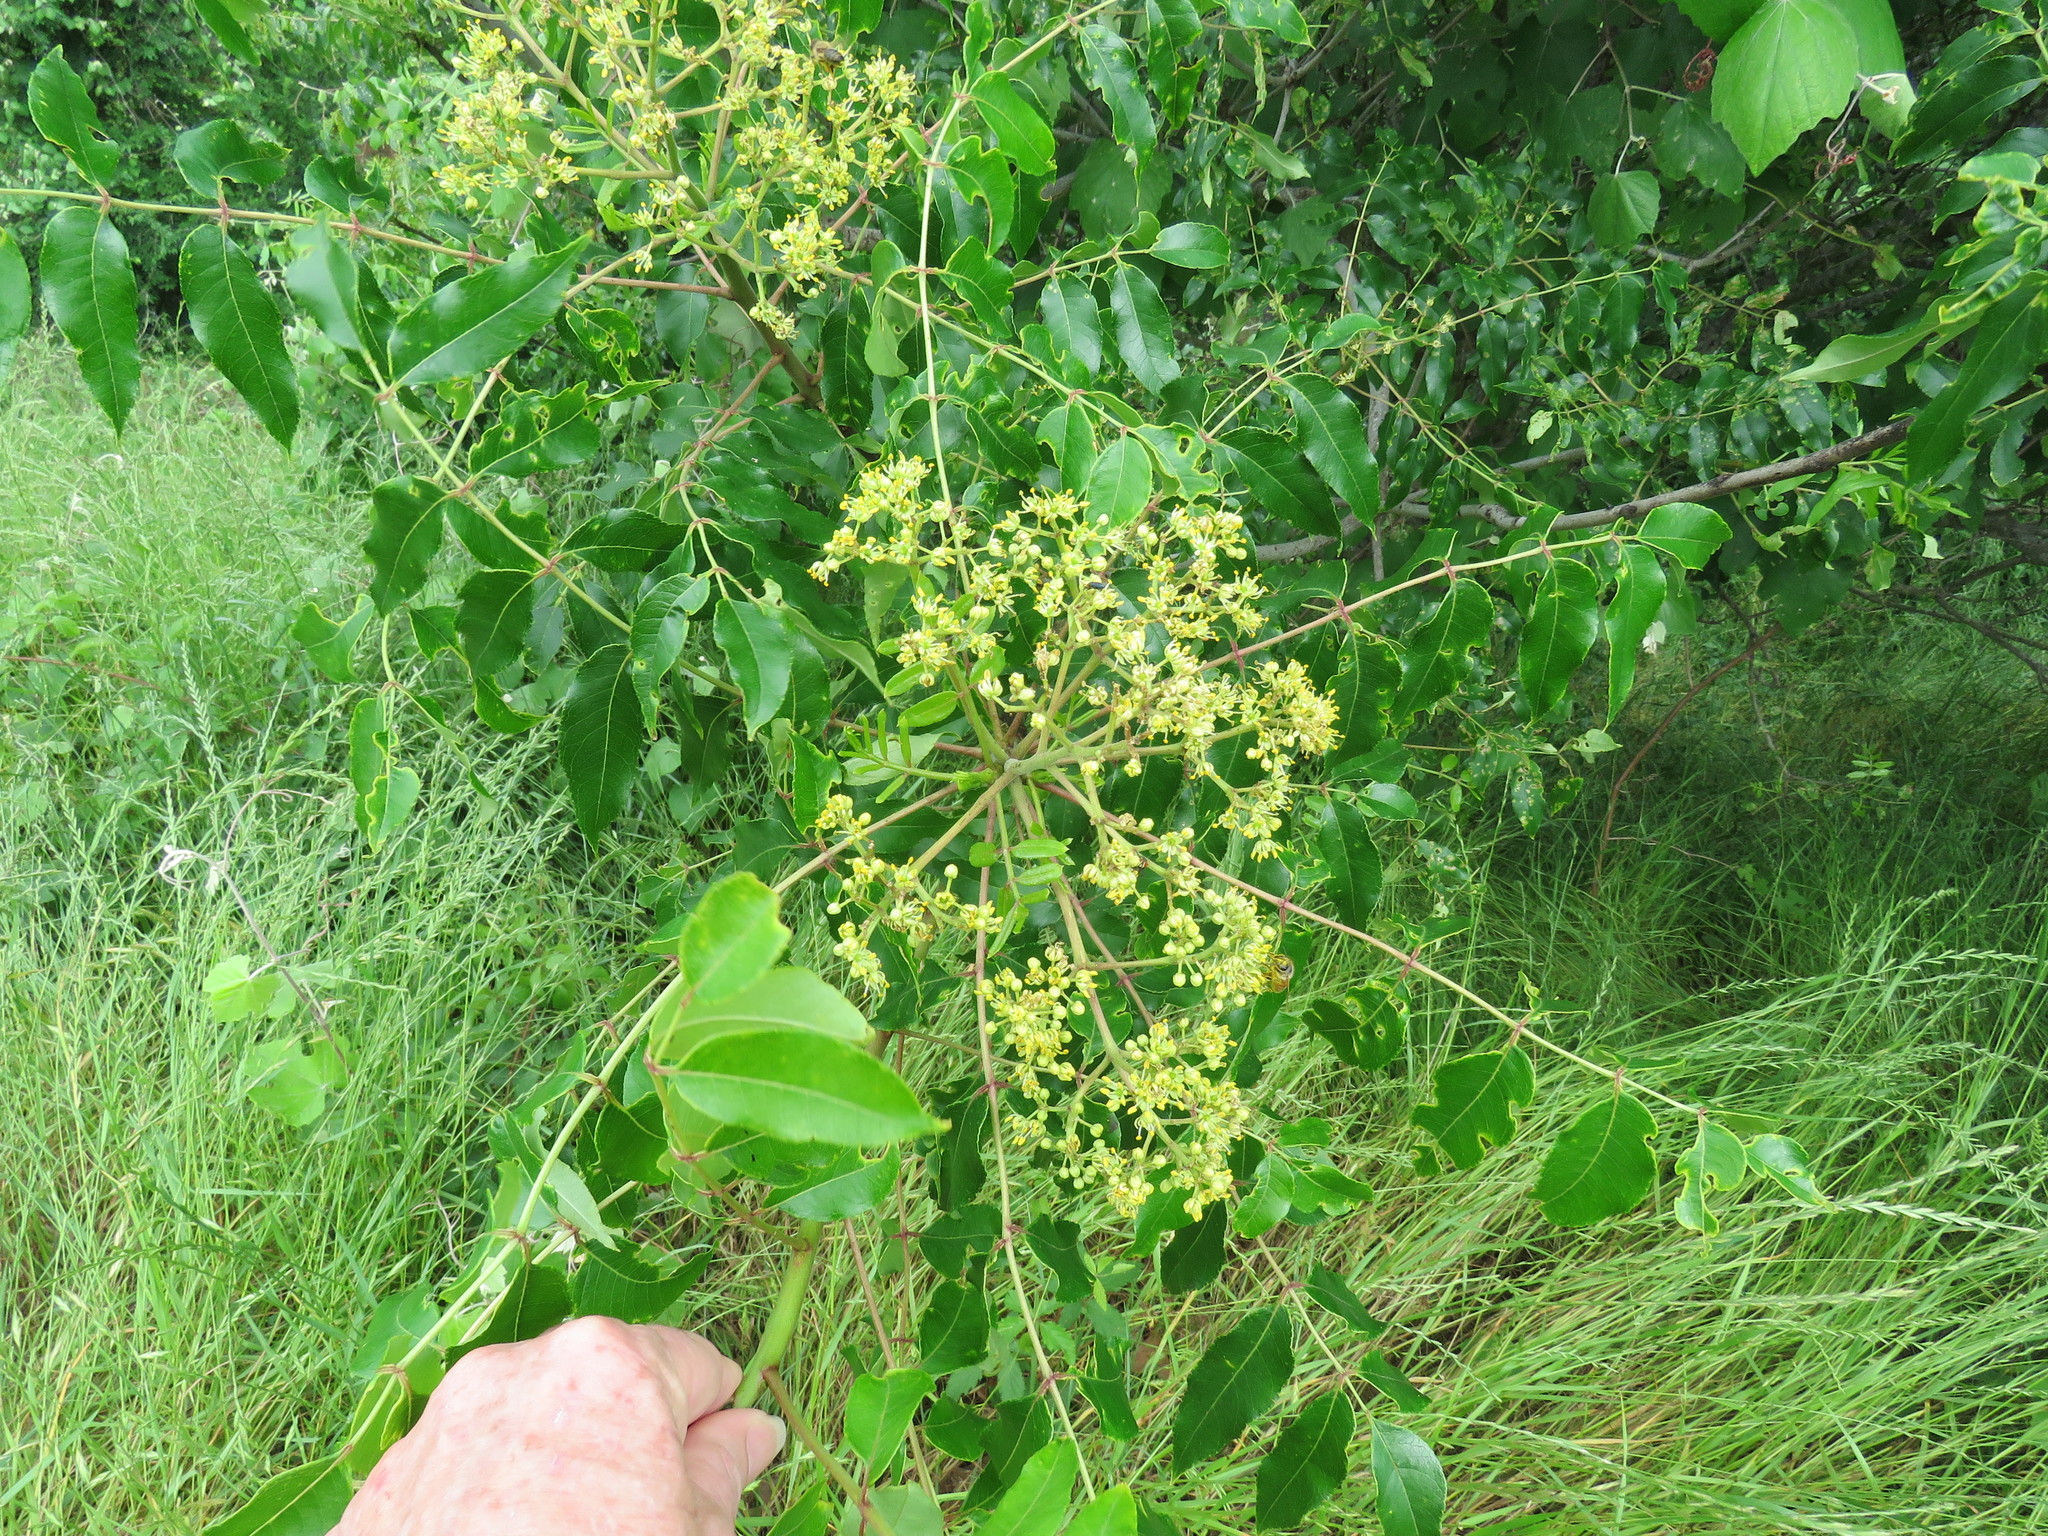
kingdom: Plantae
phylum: Tracheophyta
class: Magnoliopsida
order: Sapindales
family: Rutaceae
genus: Zanthoxylum
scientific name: Zanthoxylum clava-herculis
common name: Hercules'-club
